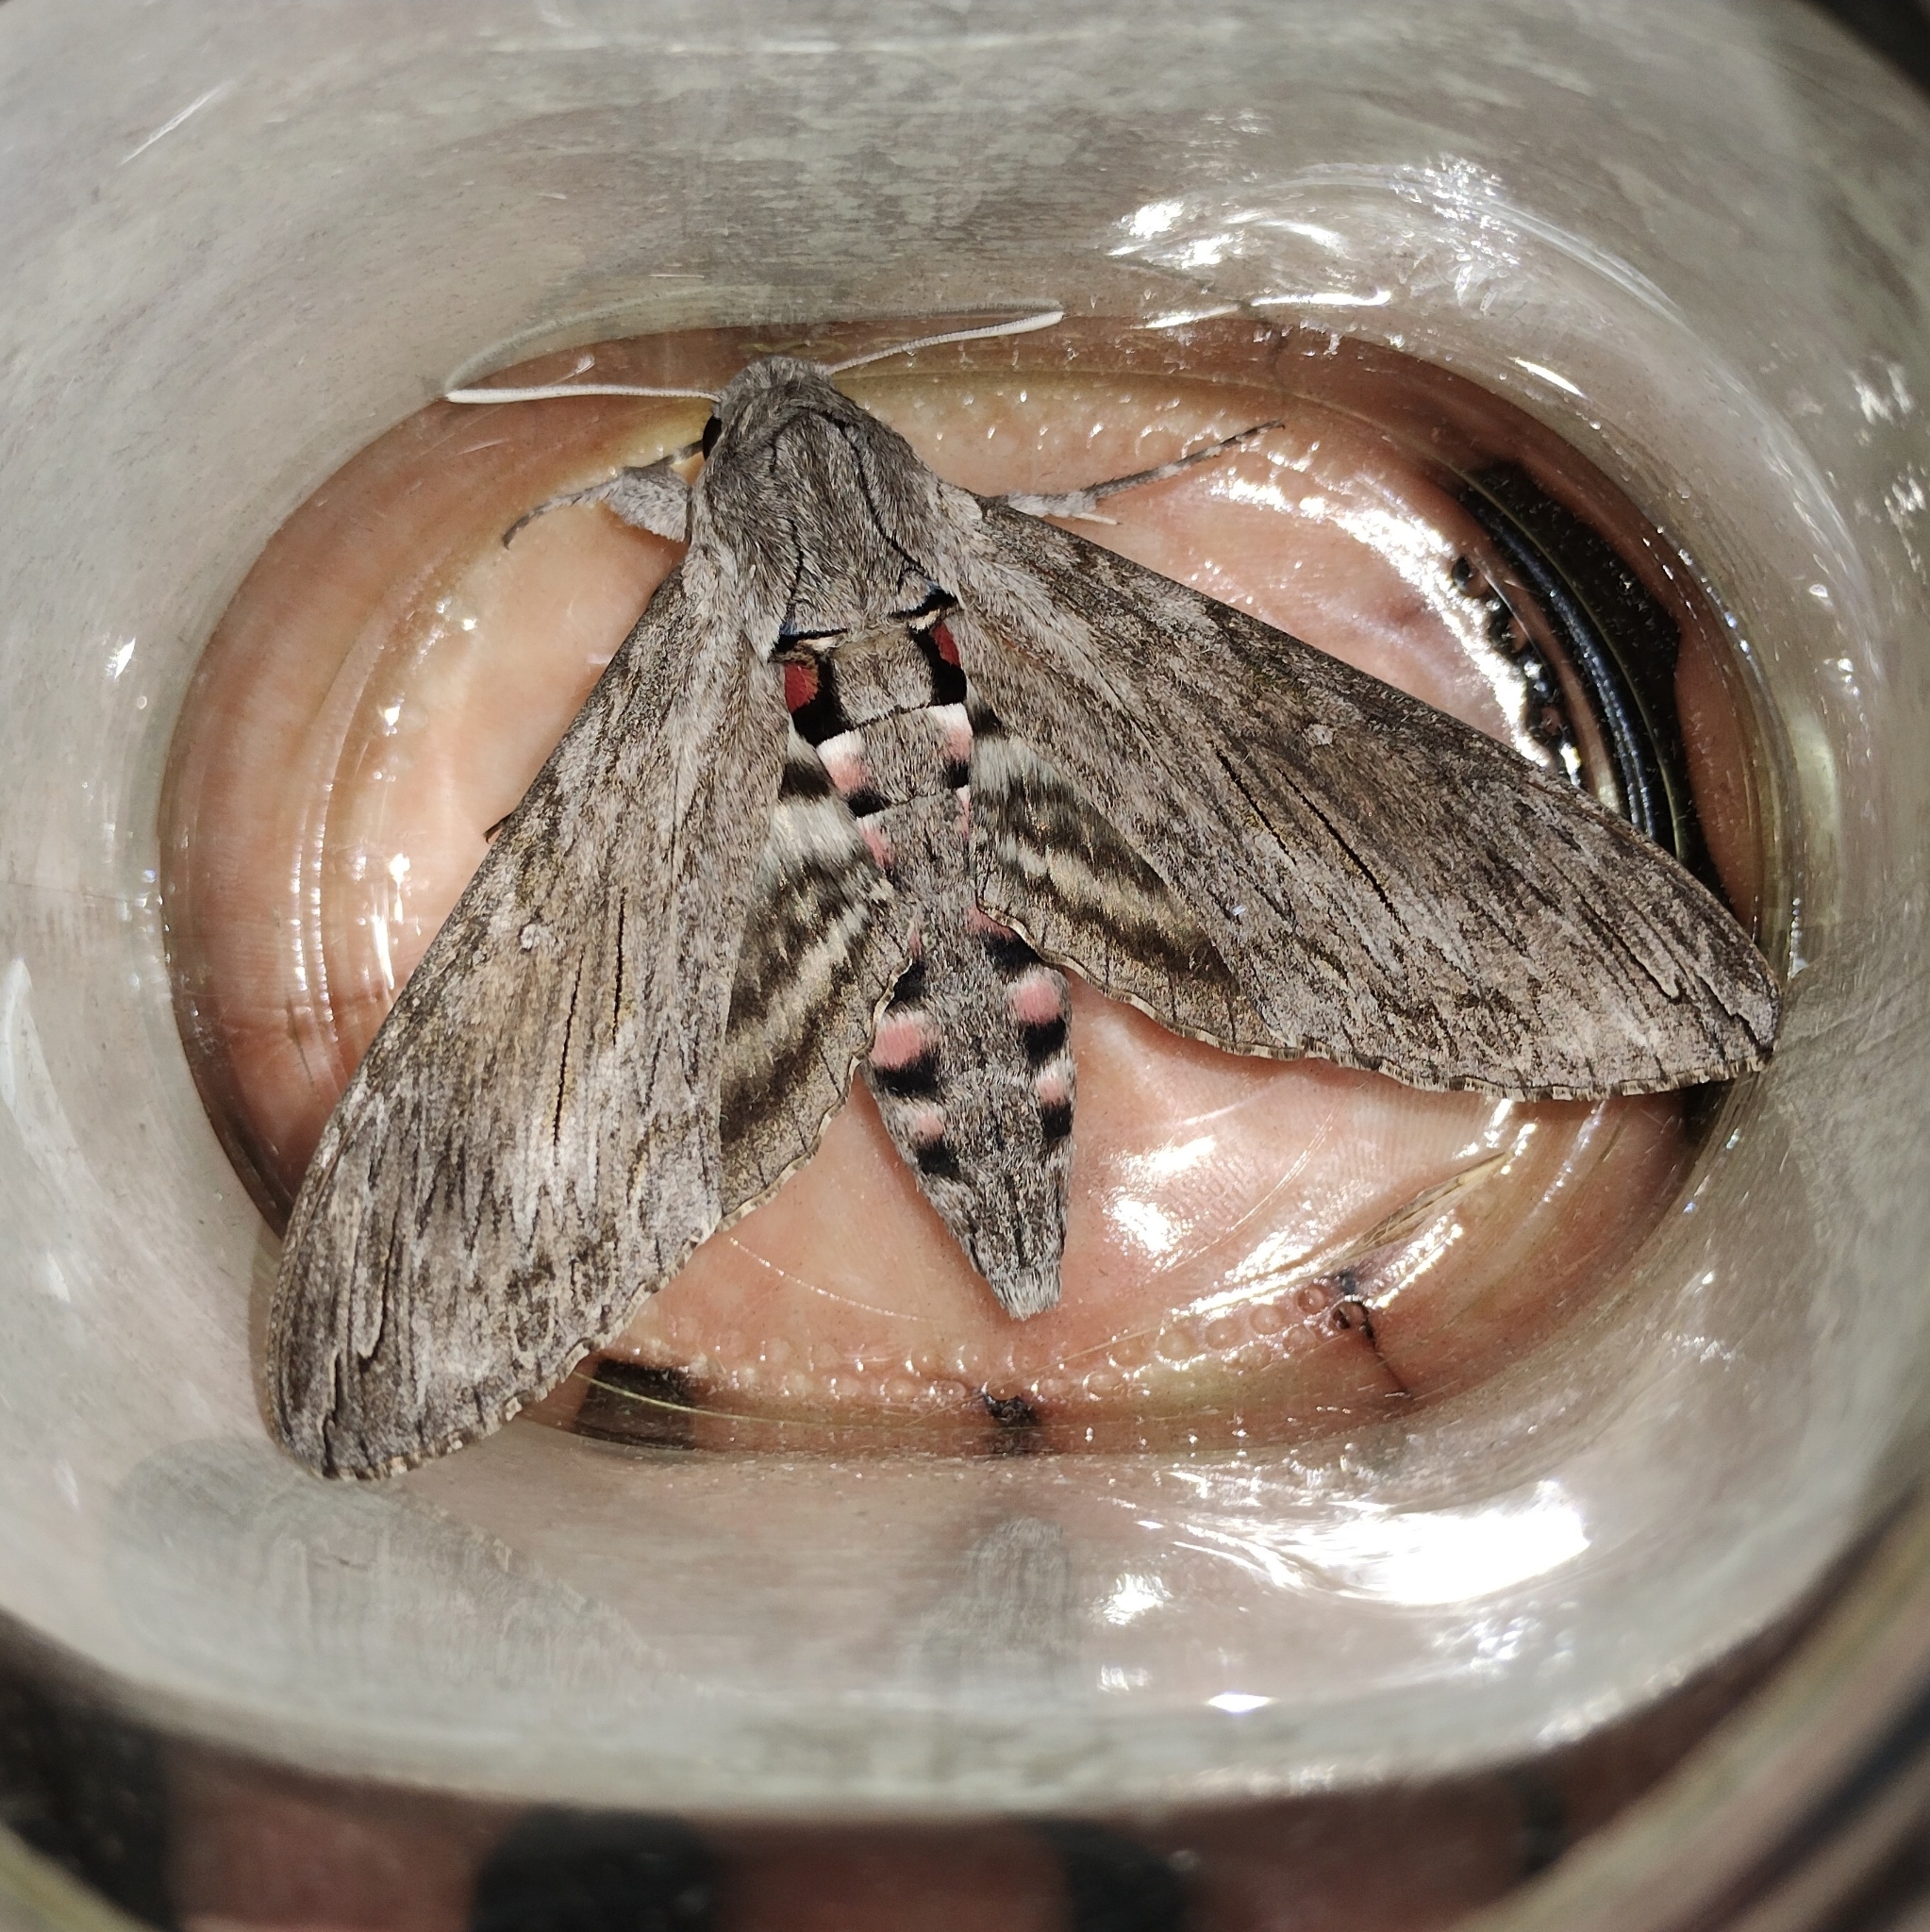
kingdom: Animalia
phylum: Arthropoda
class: Insecta
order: Lepidoptera
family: Sphingidae
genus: Agrius
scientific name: Agrius convolvuli
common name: Convolvulus hawkmoth
